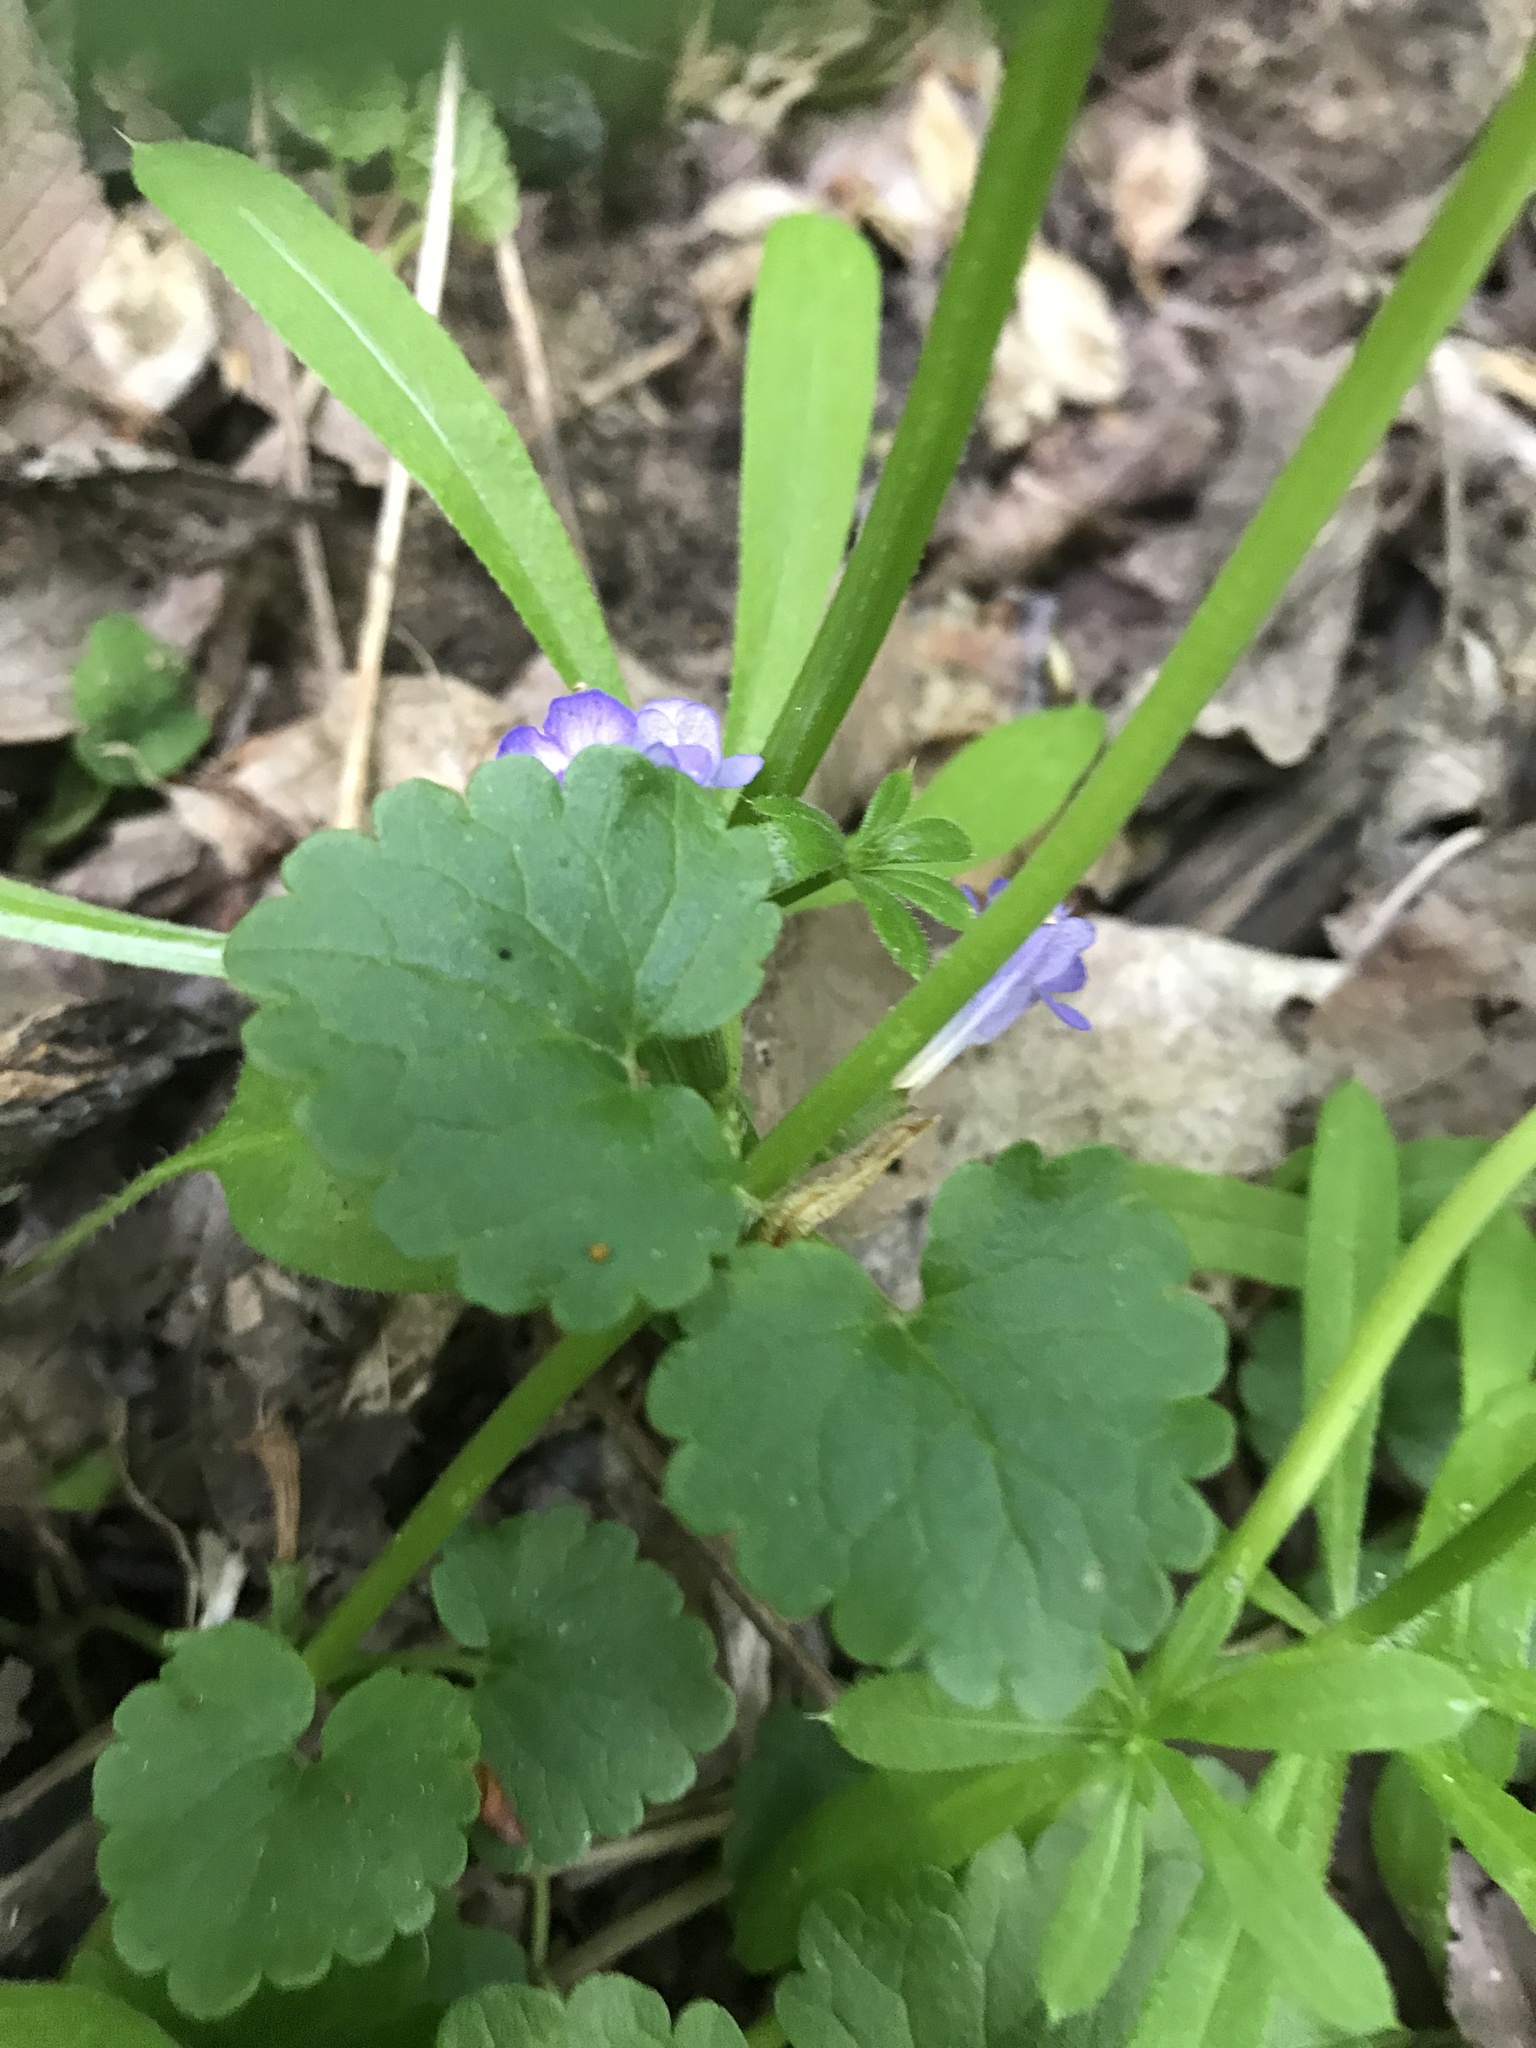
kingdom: Plantae
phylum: Tracheophyta
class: Magnoliopsida
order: Lamiales
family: Lamiaceae
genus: Glechoma
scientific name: Glechoma hederacea
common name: Ground ivy
